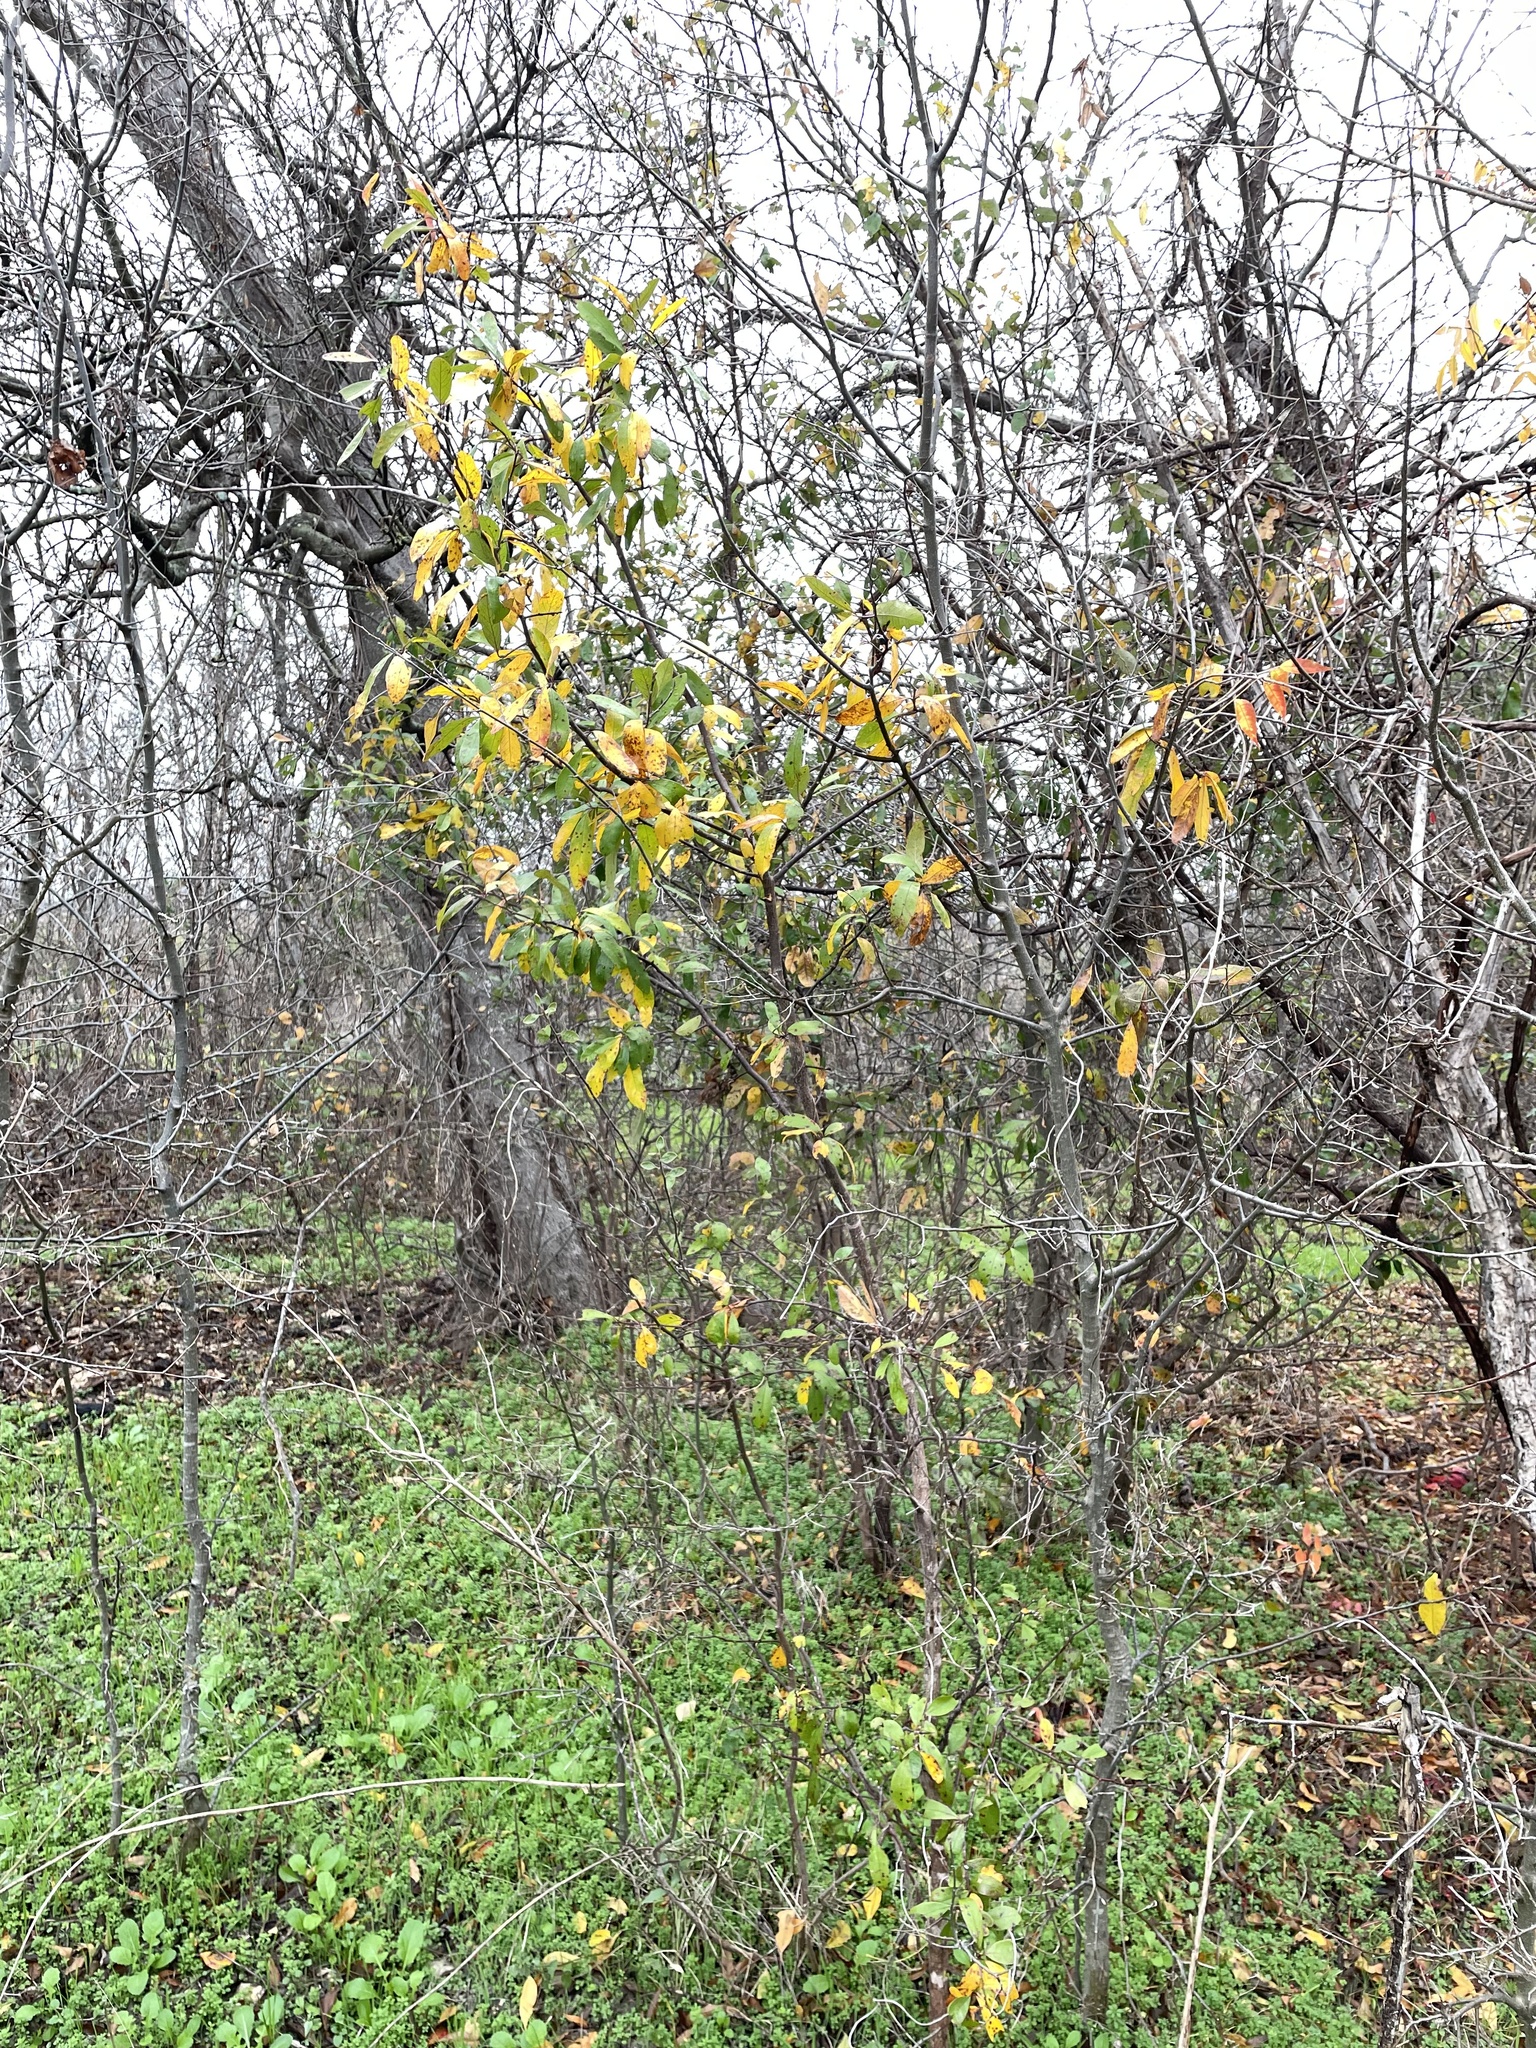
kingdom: Plantae
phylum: Tracheophyta
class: Magnoliopsida
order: Ericales
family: Sapotaceae
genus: Sideroxylon
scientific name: Sideroxylon lanuginosum
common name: Chittamwood
